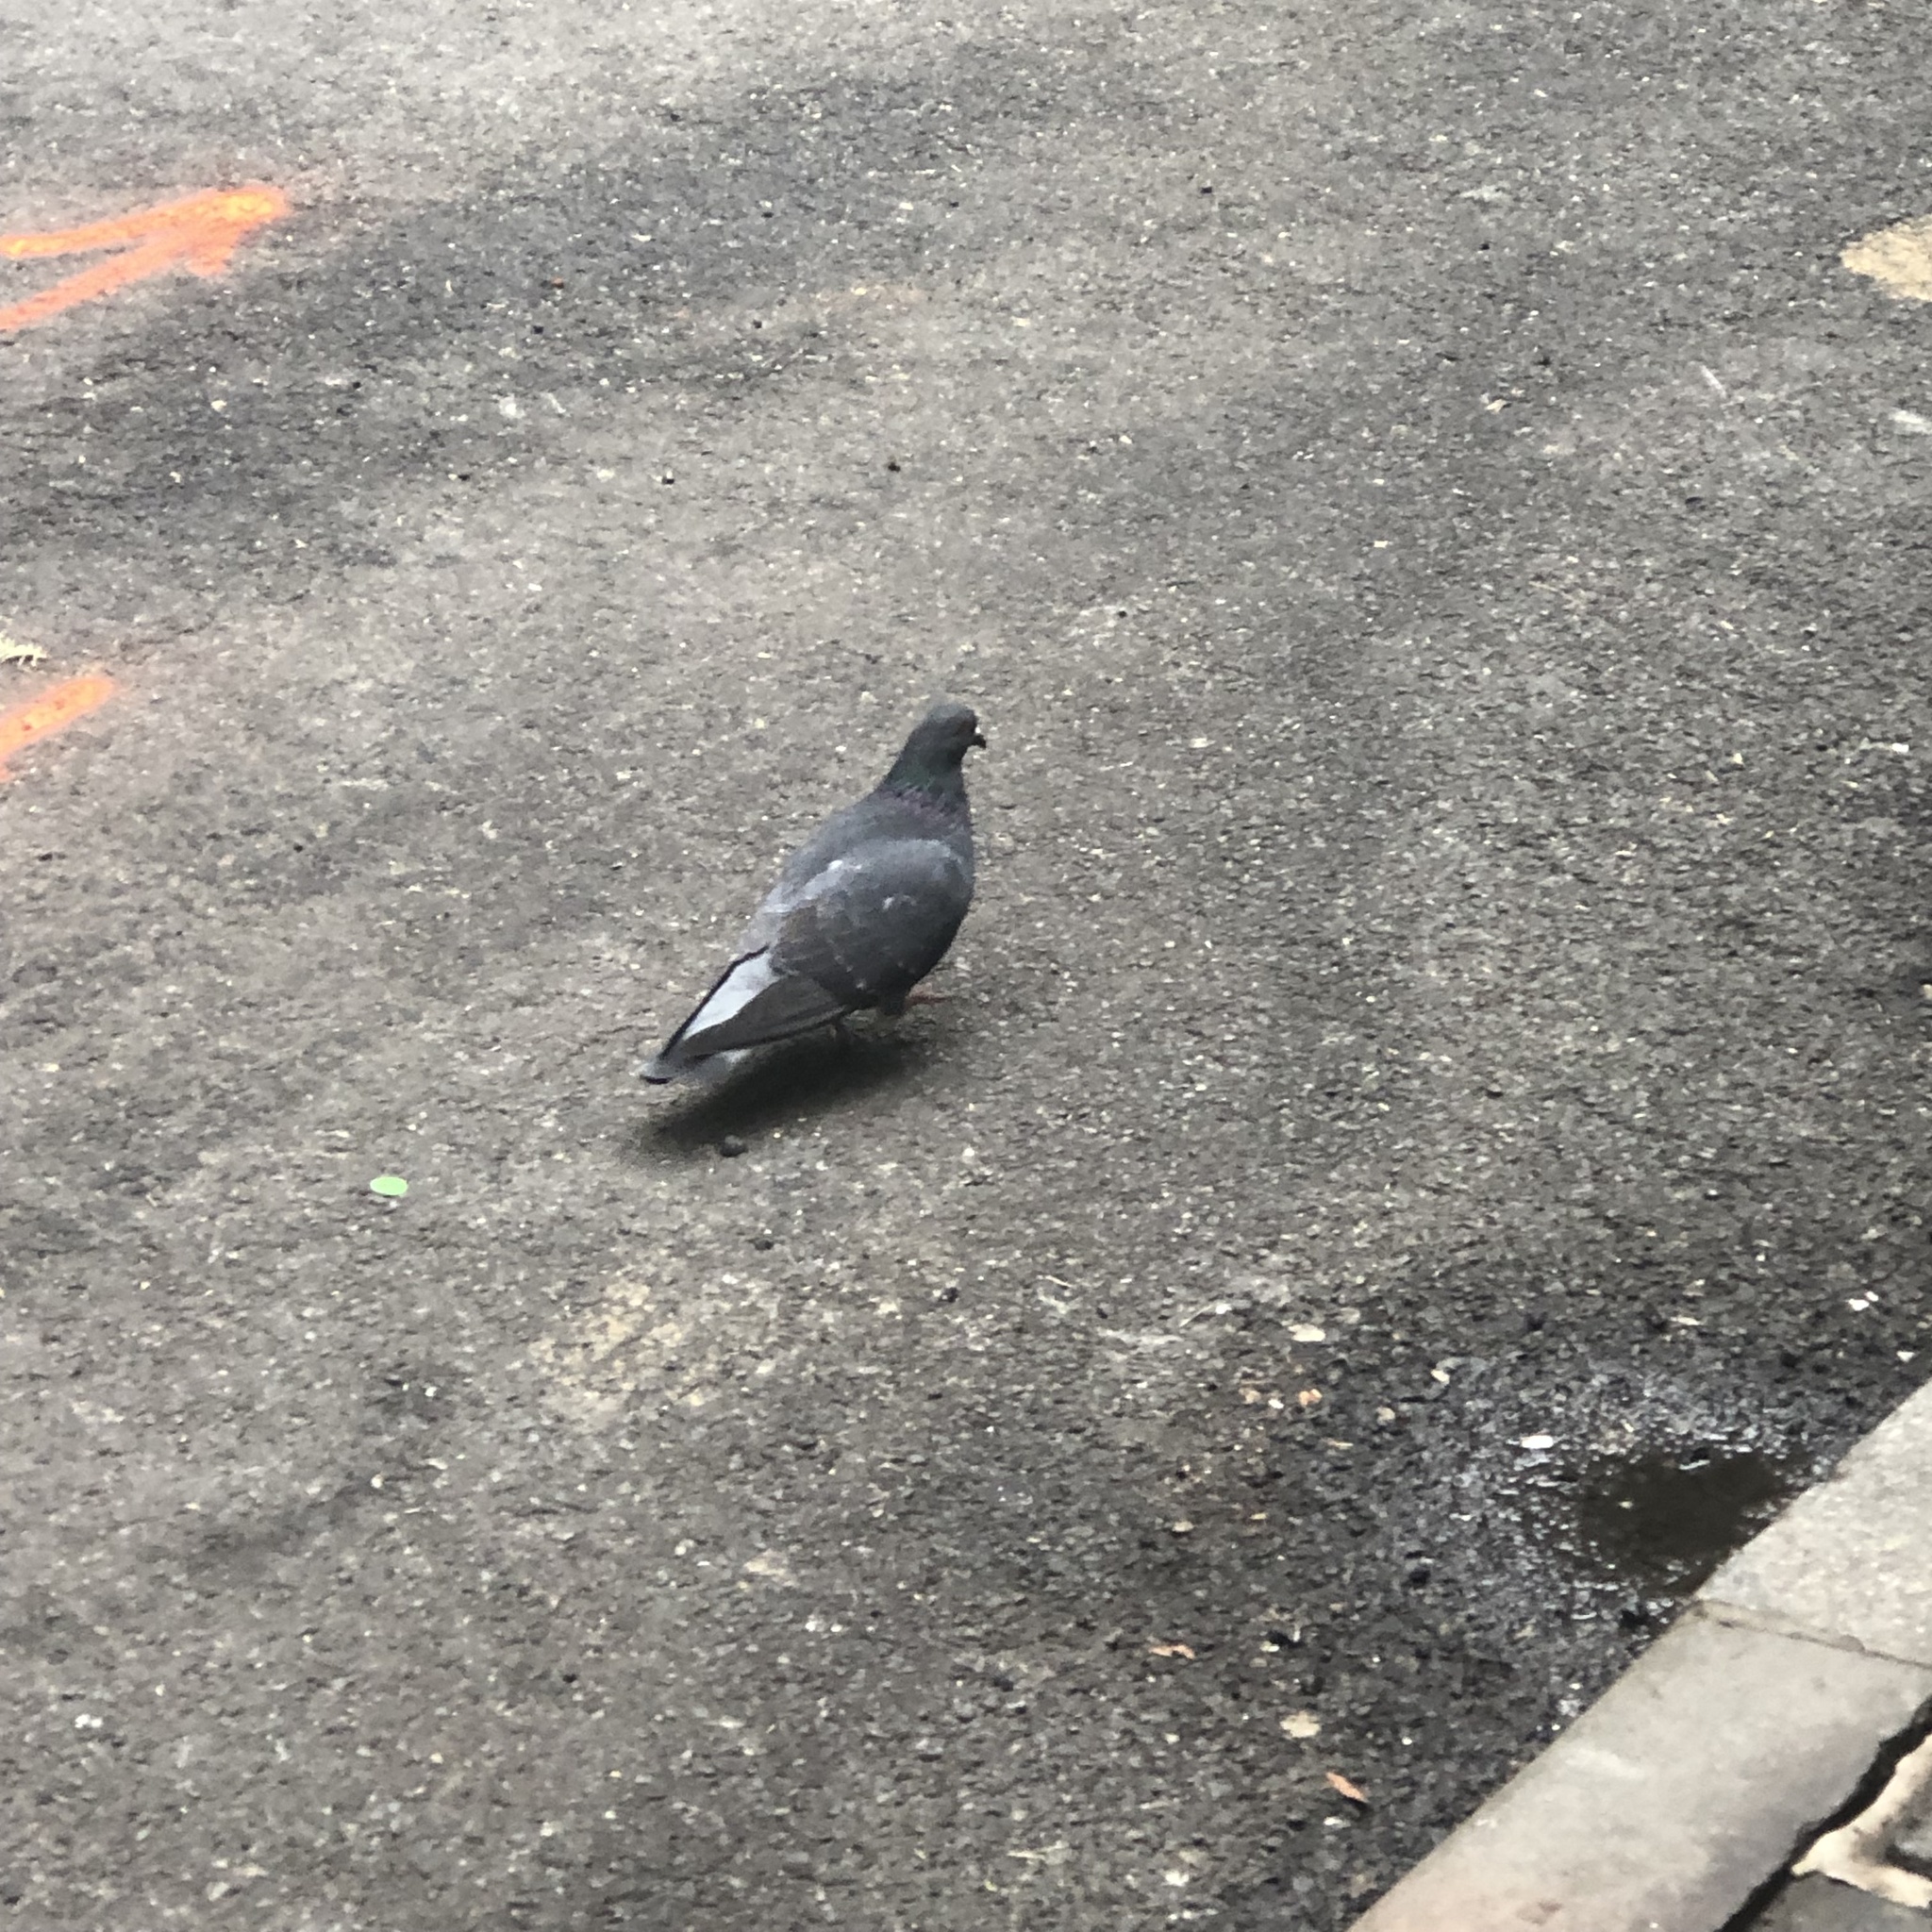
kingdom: Animalia
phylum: Chordata
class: Aves
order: Columbiformes
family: Columbidae
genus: Columba
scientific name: Columba livia
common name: Rock pigeon
